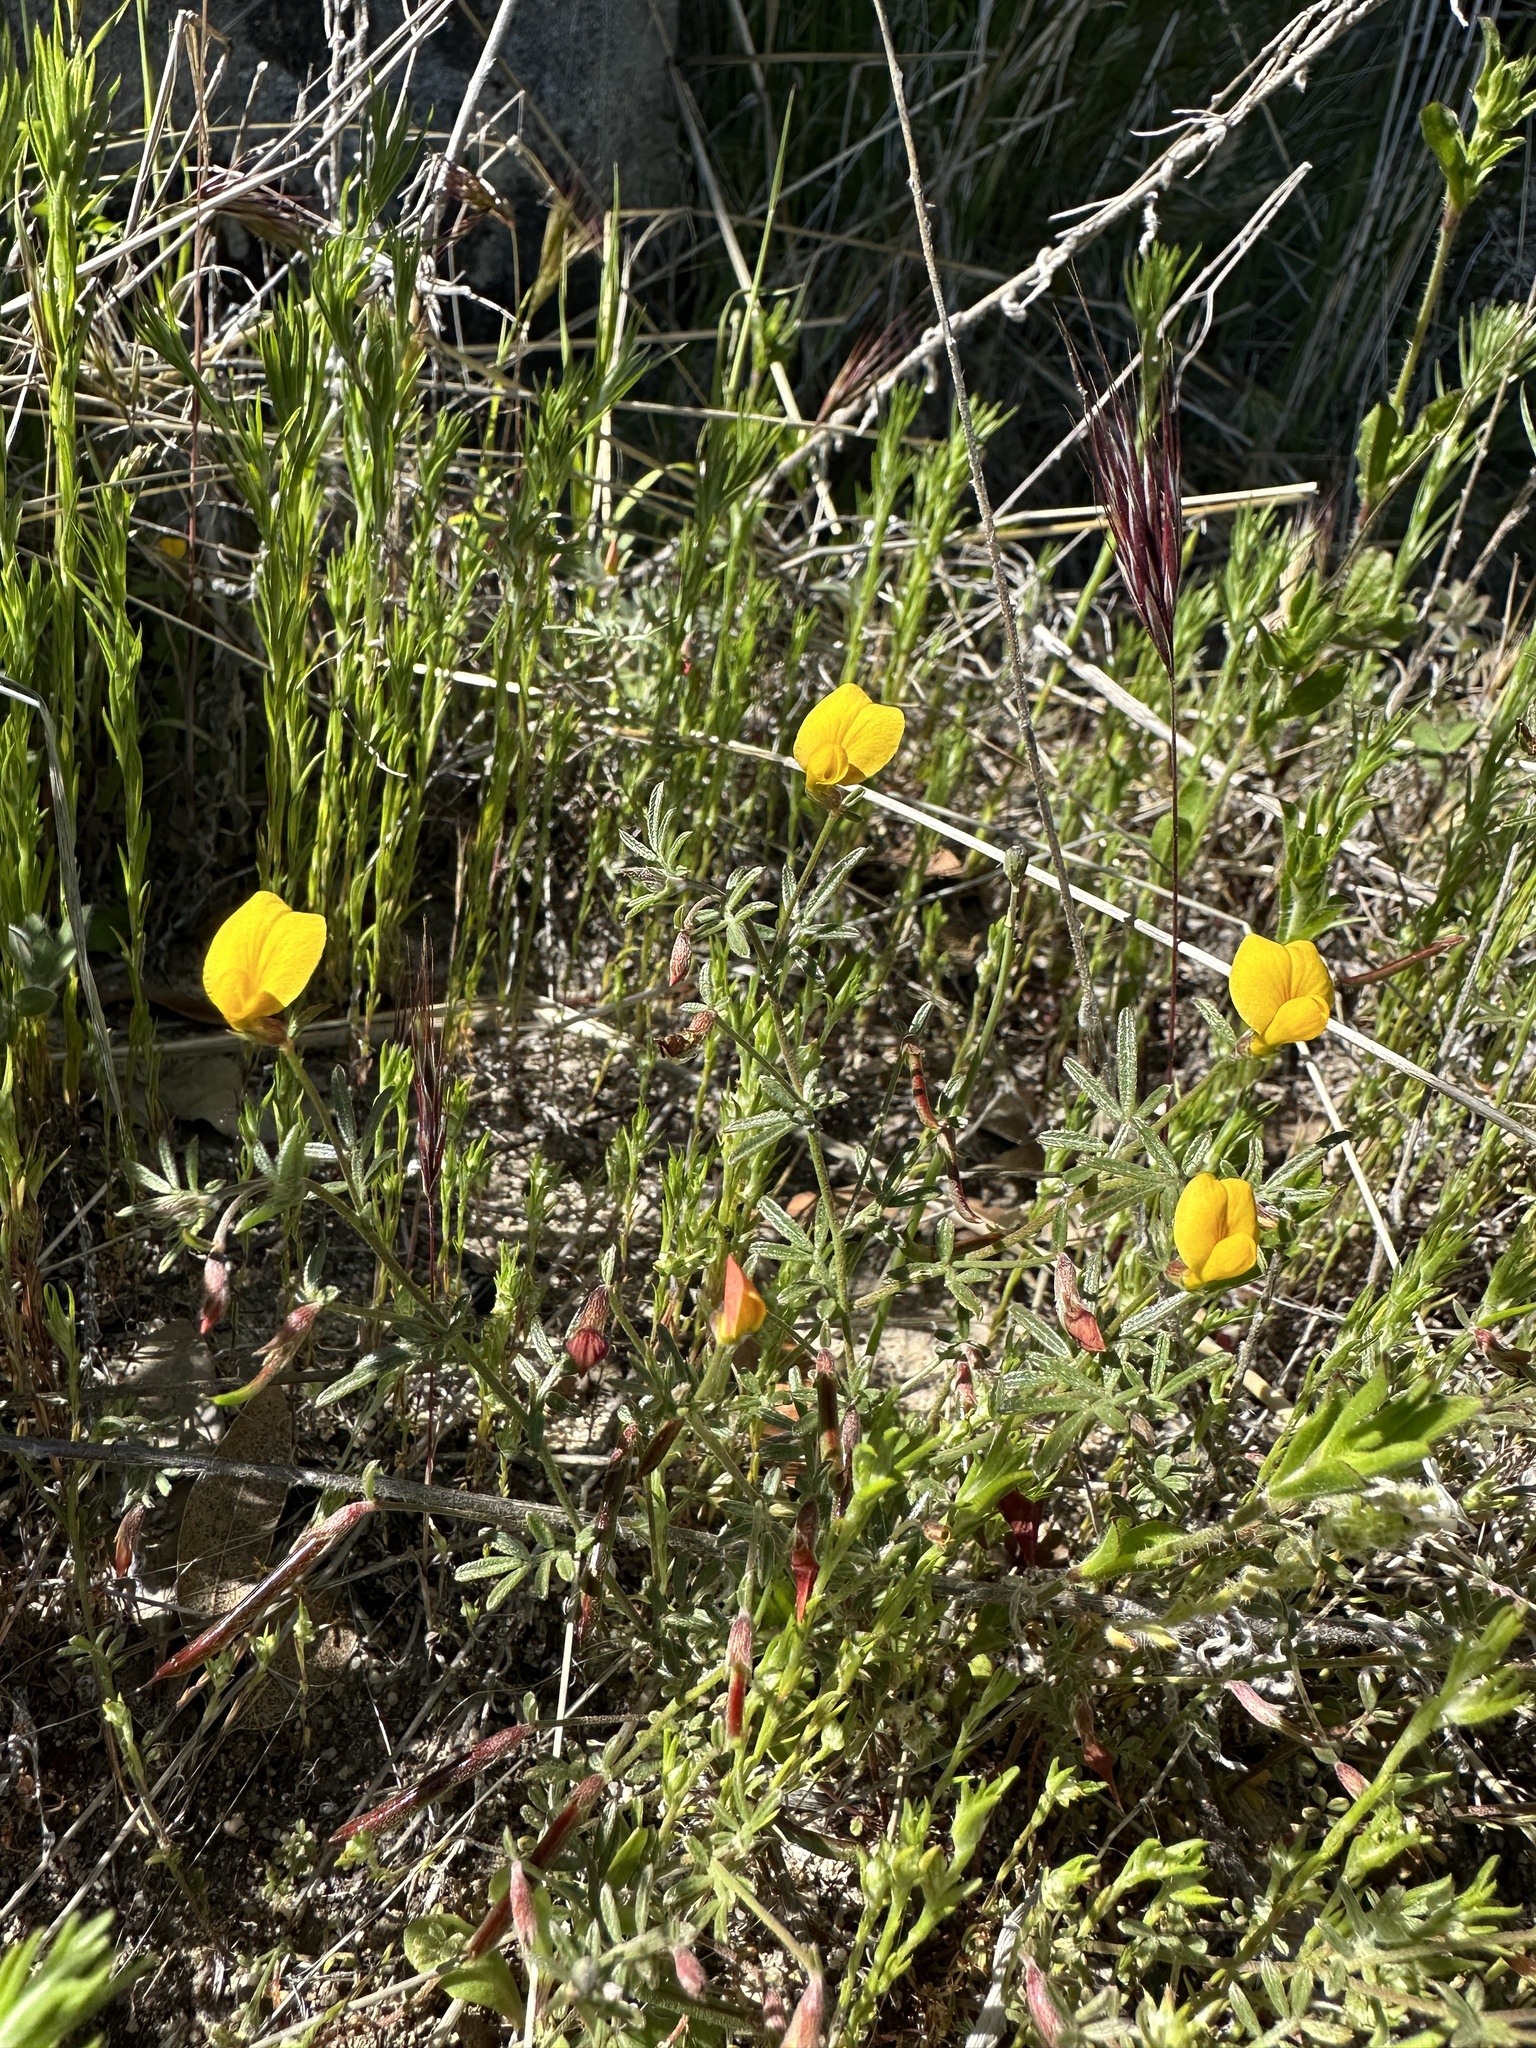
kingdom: Plantae
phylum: Tracheophyta
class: Magnoliopsida
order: Fabales
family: Fabaceae
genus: Acmispon
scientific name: Acmispon strigosus
